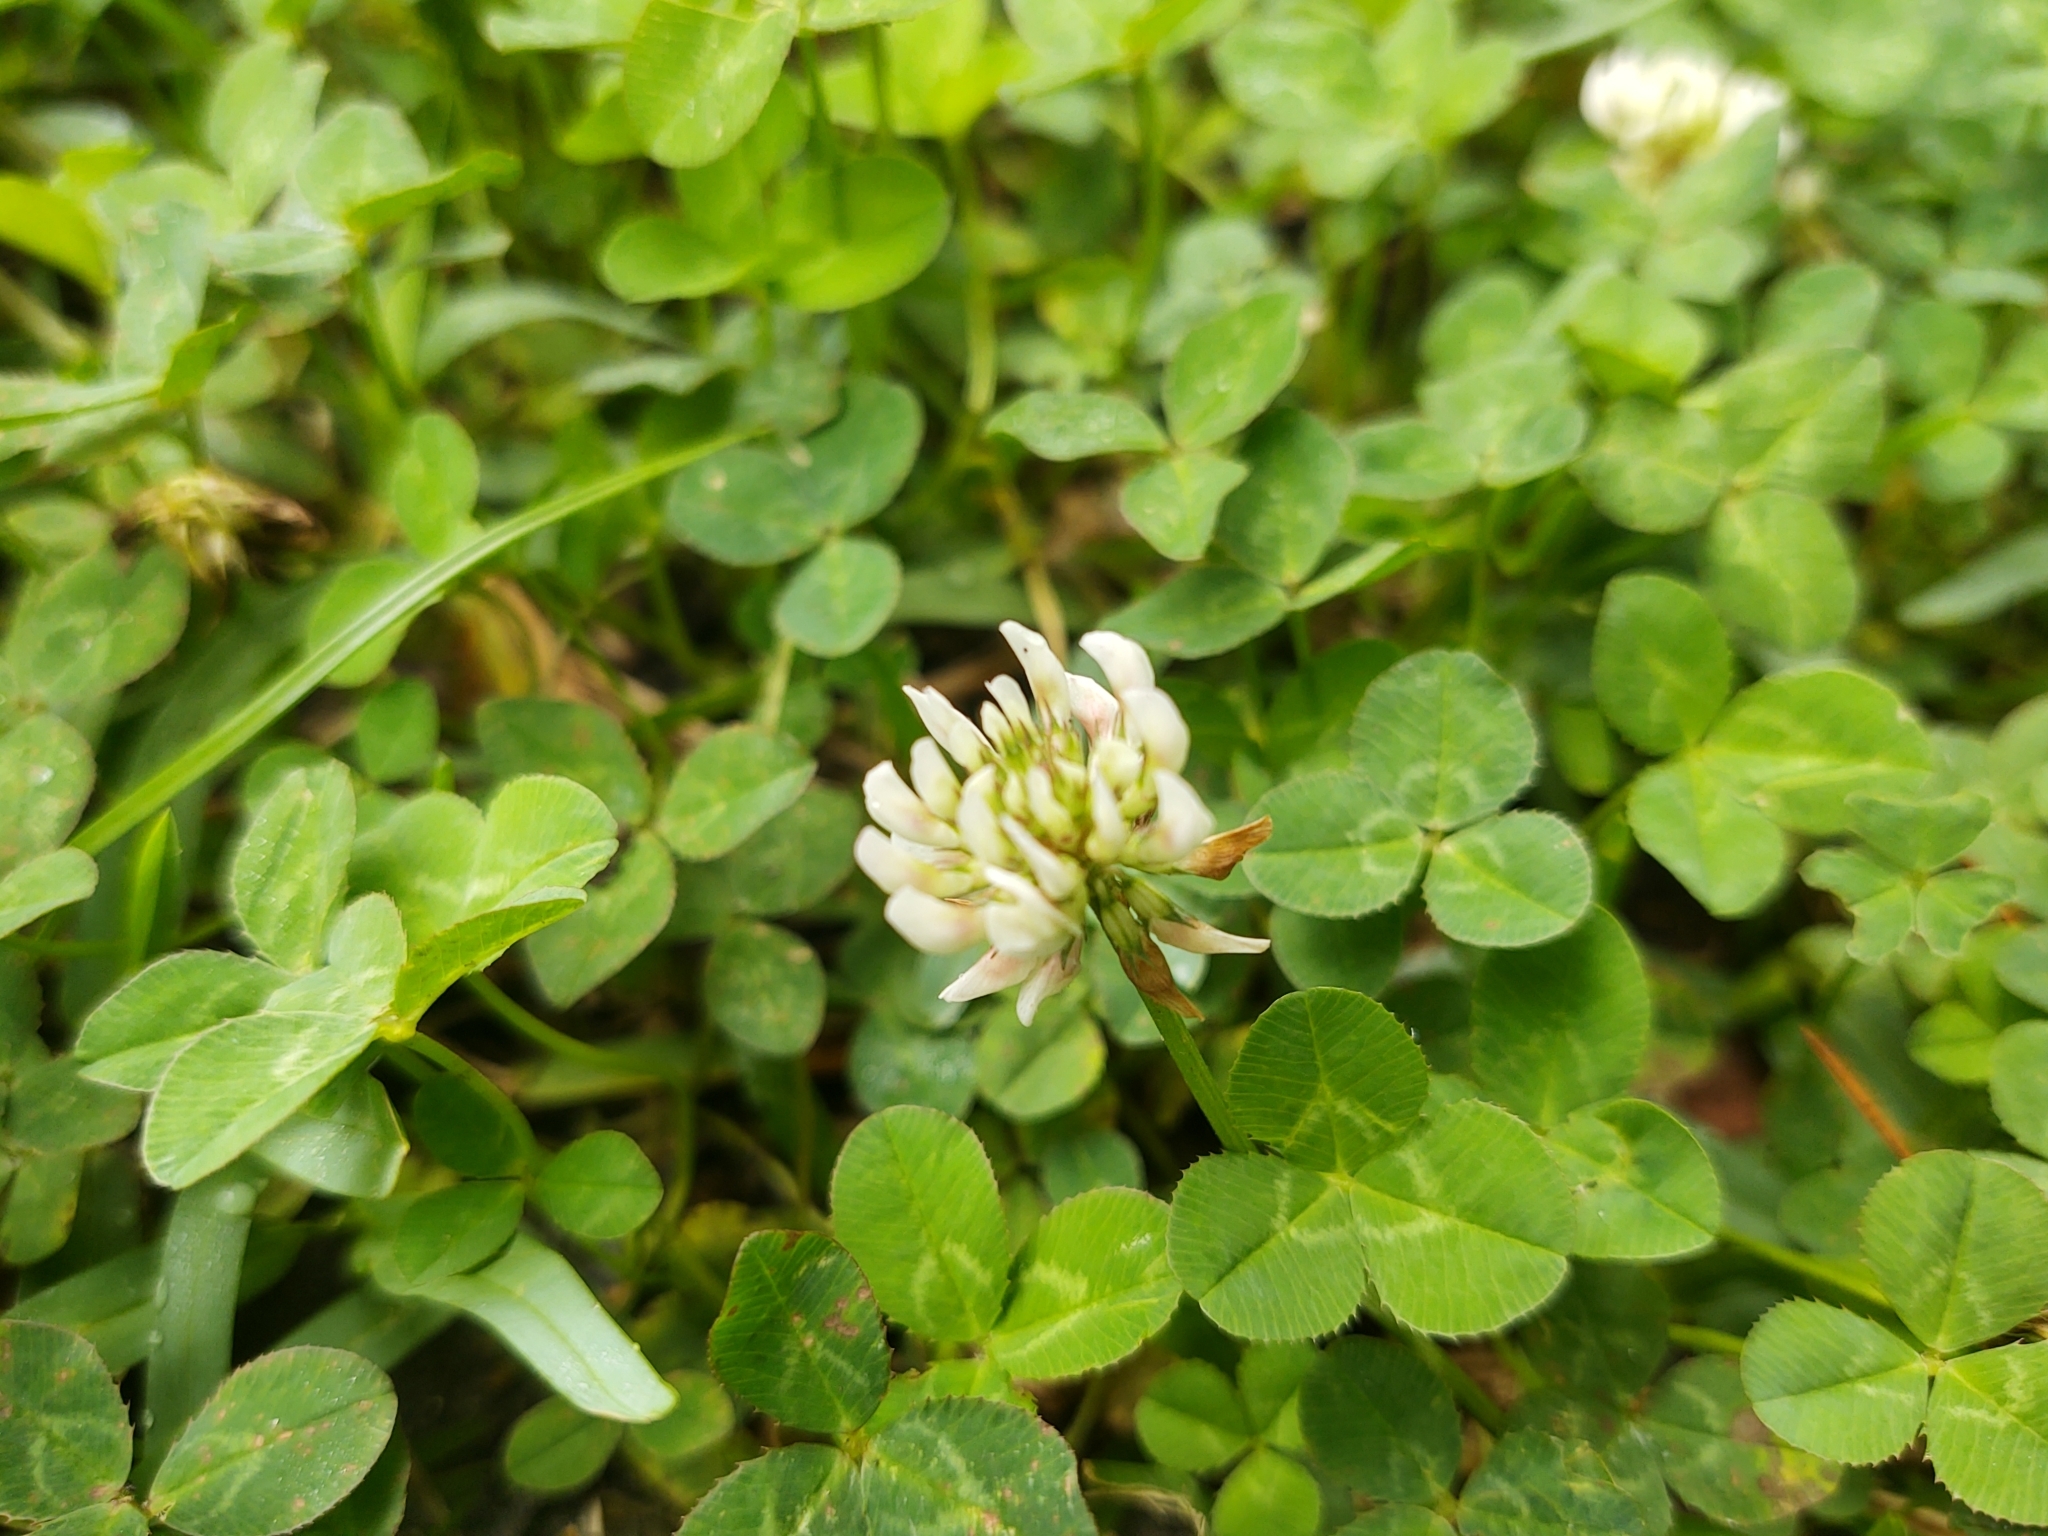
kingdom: Plantae
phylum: Tracheophyta
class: Magnoliopsida
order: Fabales
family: Fabaceae
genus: Trifolium
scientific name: Trifolium repens
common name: White clover
